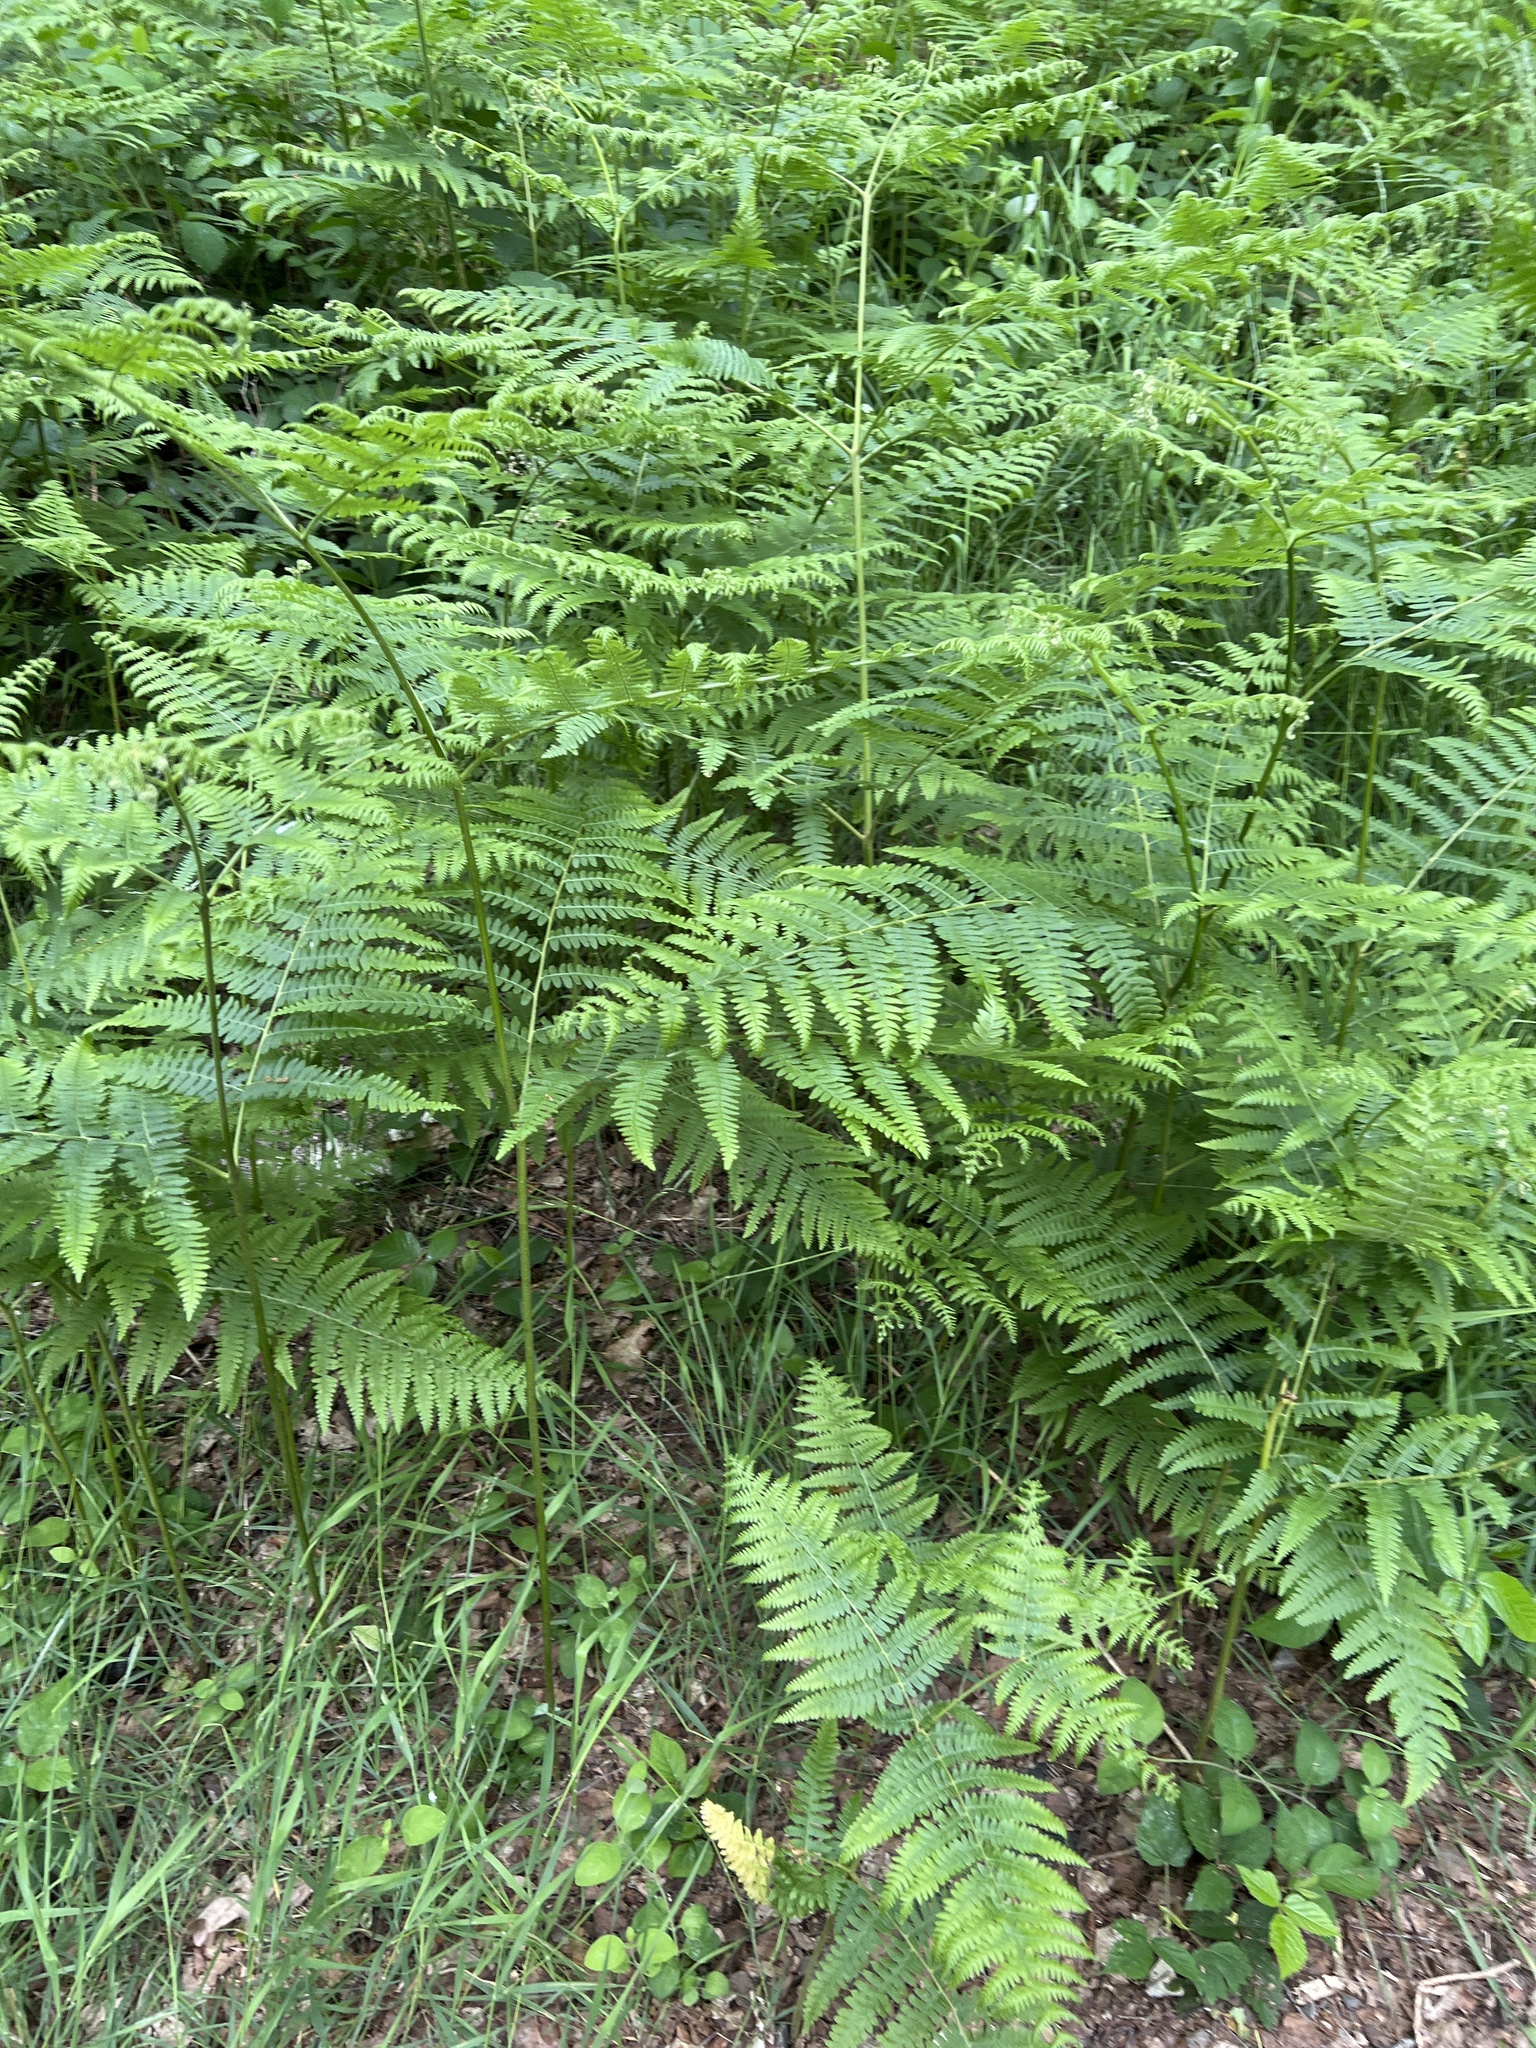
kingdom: Plantae
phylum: Tracheophyta
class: Polypodiopsida
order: Polypodiales
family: Dennstaedtiaceae
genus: Pteridium
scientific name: Pteridium aquilinum
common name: Bracken
